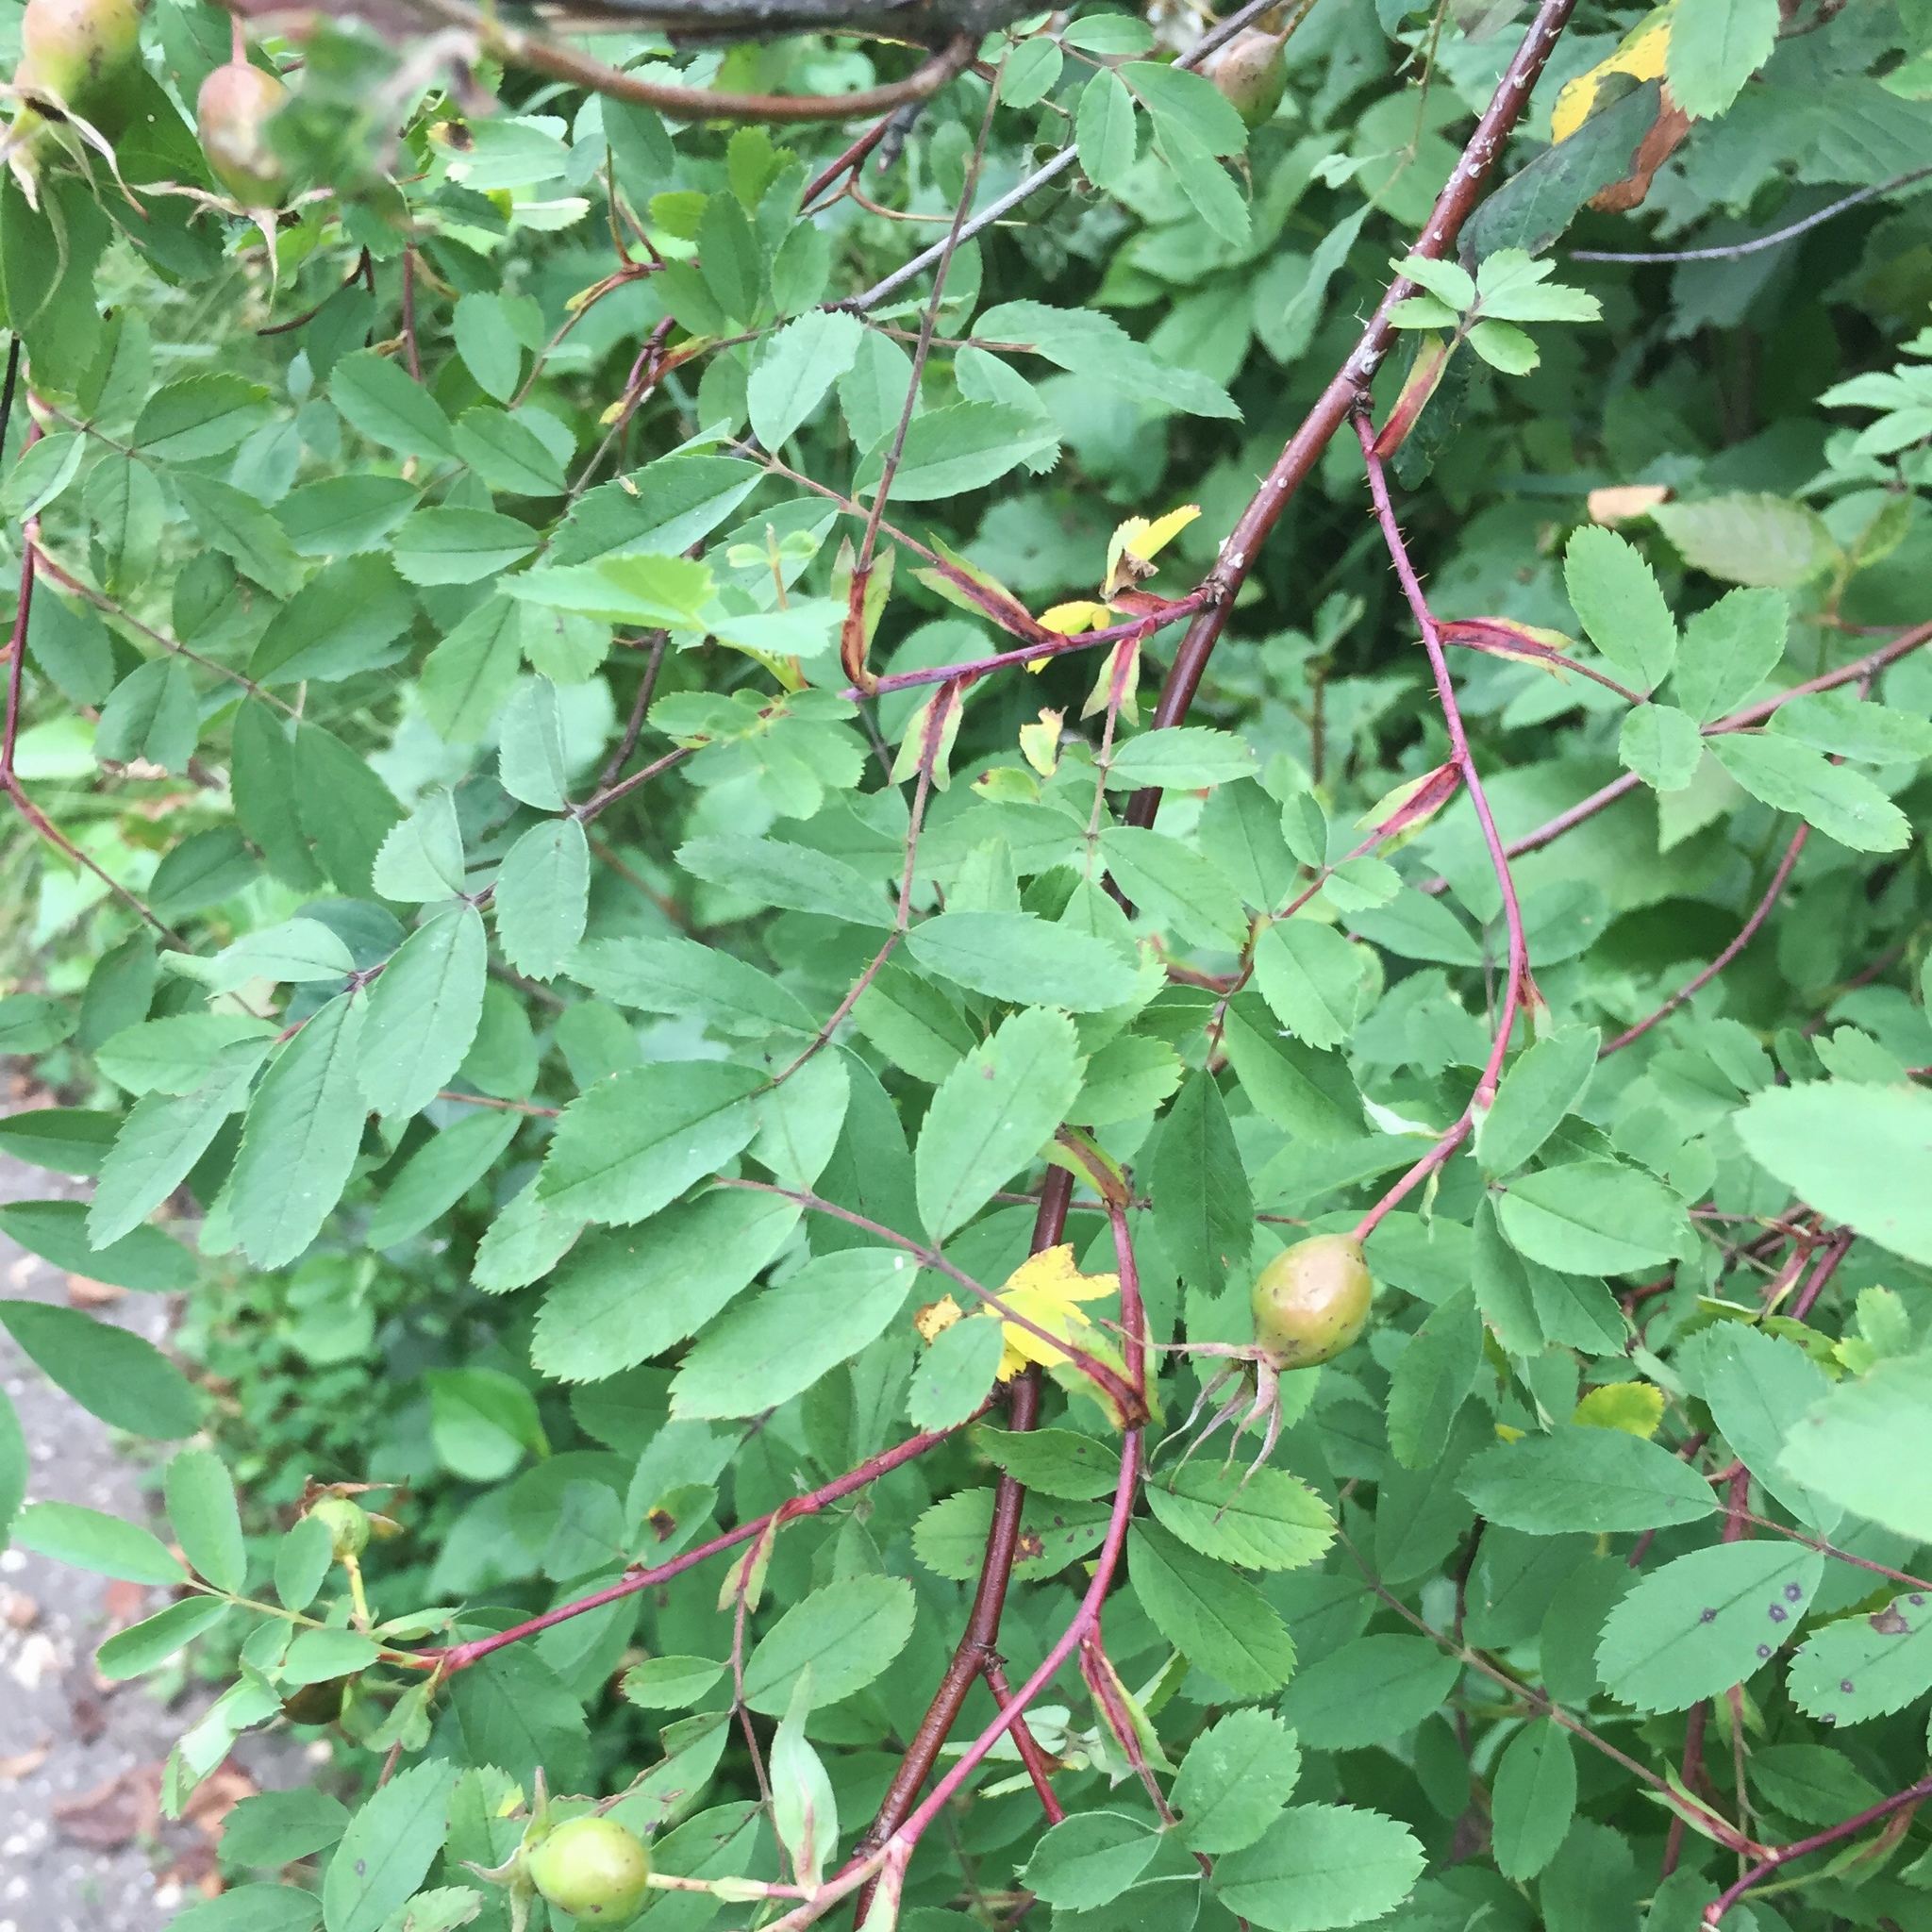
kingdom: Plantae
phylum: Tracheophyta
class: Magnoliopsida
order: Rosales
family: Rosaceae
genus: Rosa
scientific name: Rosa acicularis
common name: Prickly rose
